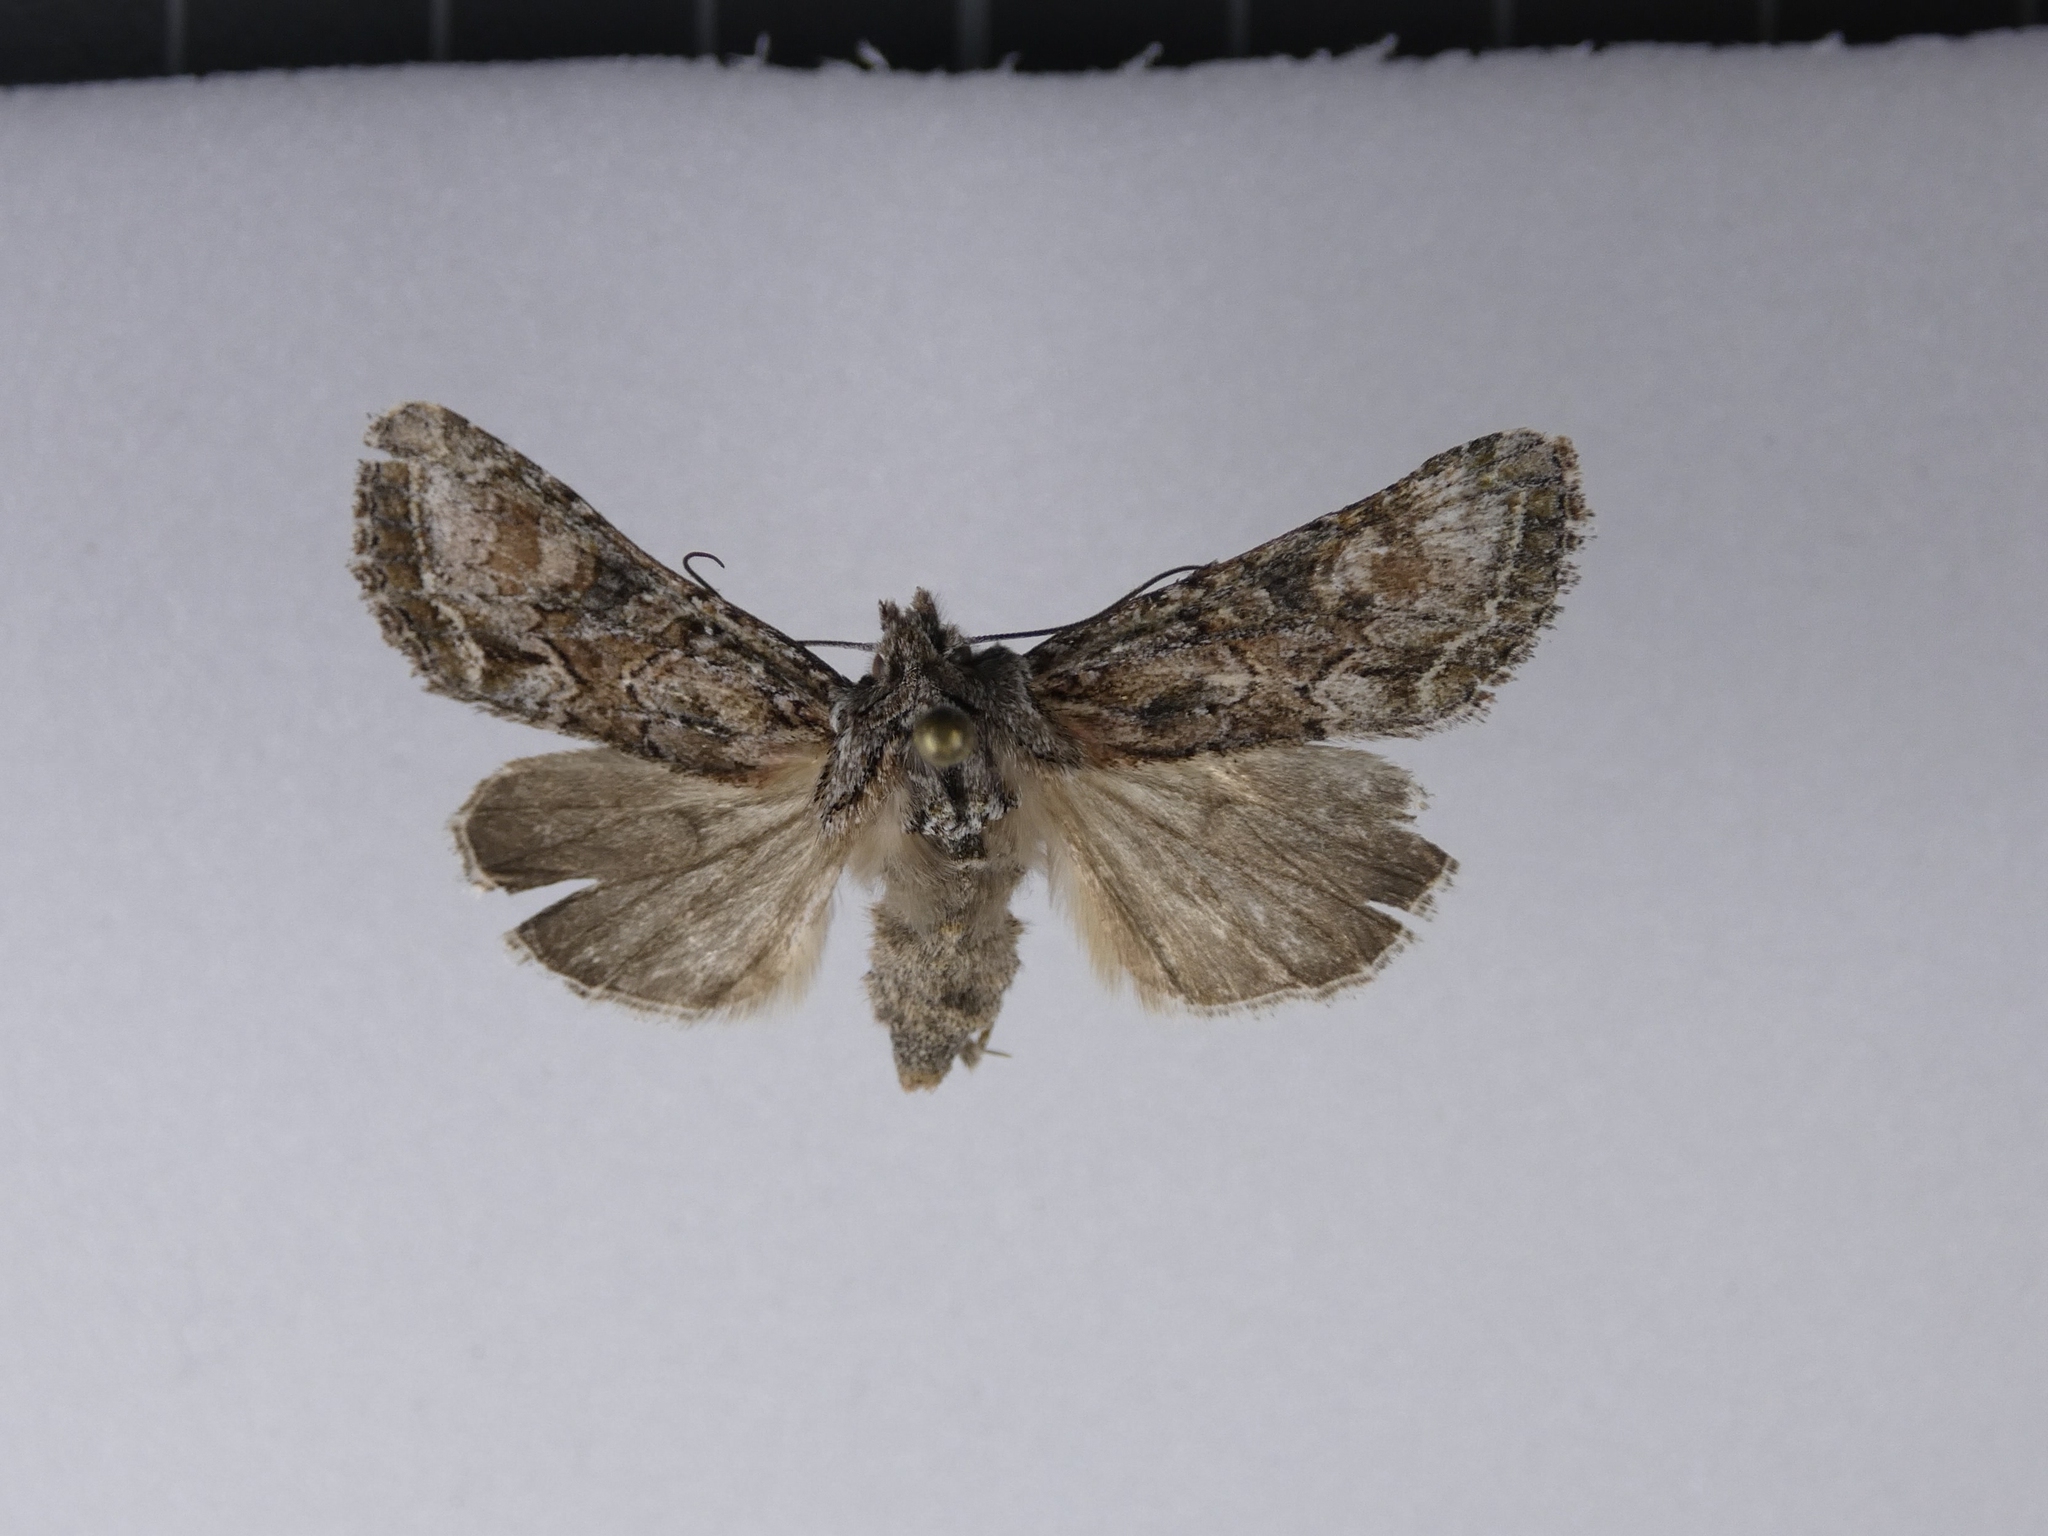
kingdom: Animalia
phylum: Arthropoda
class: Insecta
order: Lepidoptera
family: Noctuidae
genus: Ichneutica
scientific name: Ichneutica mutans
